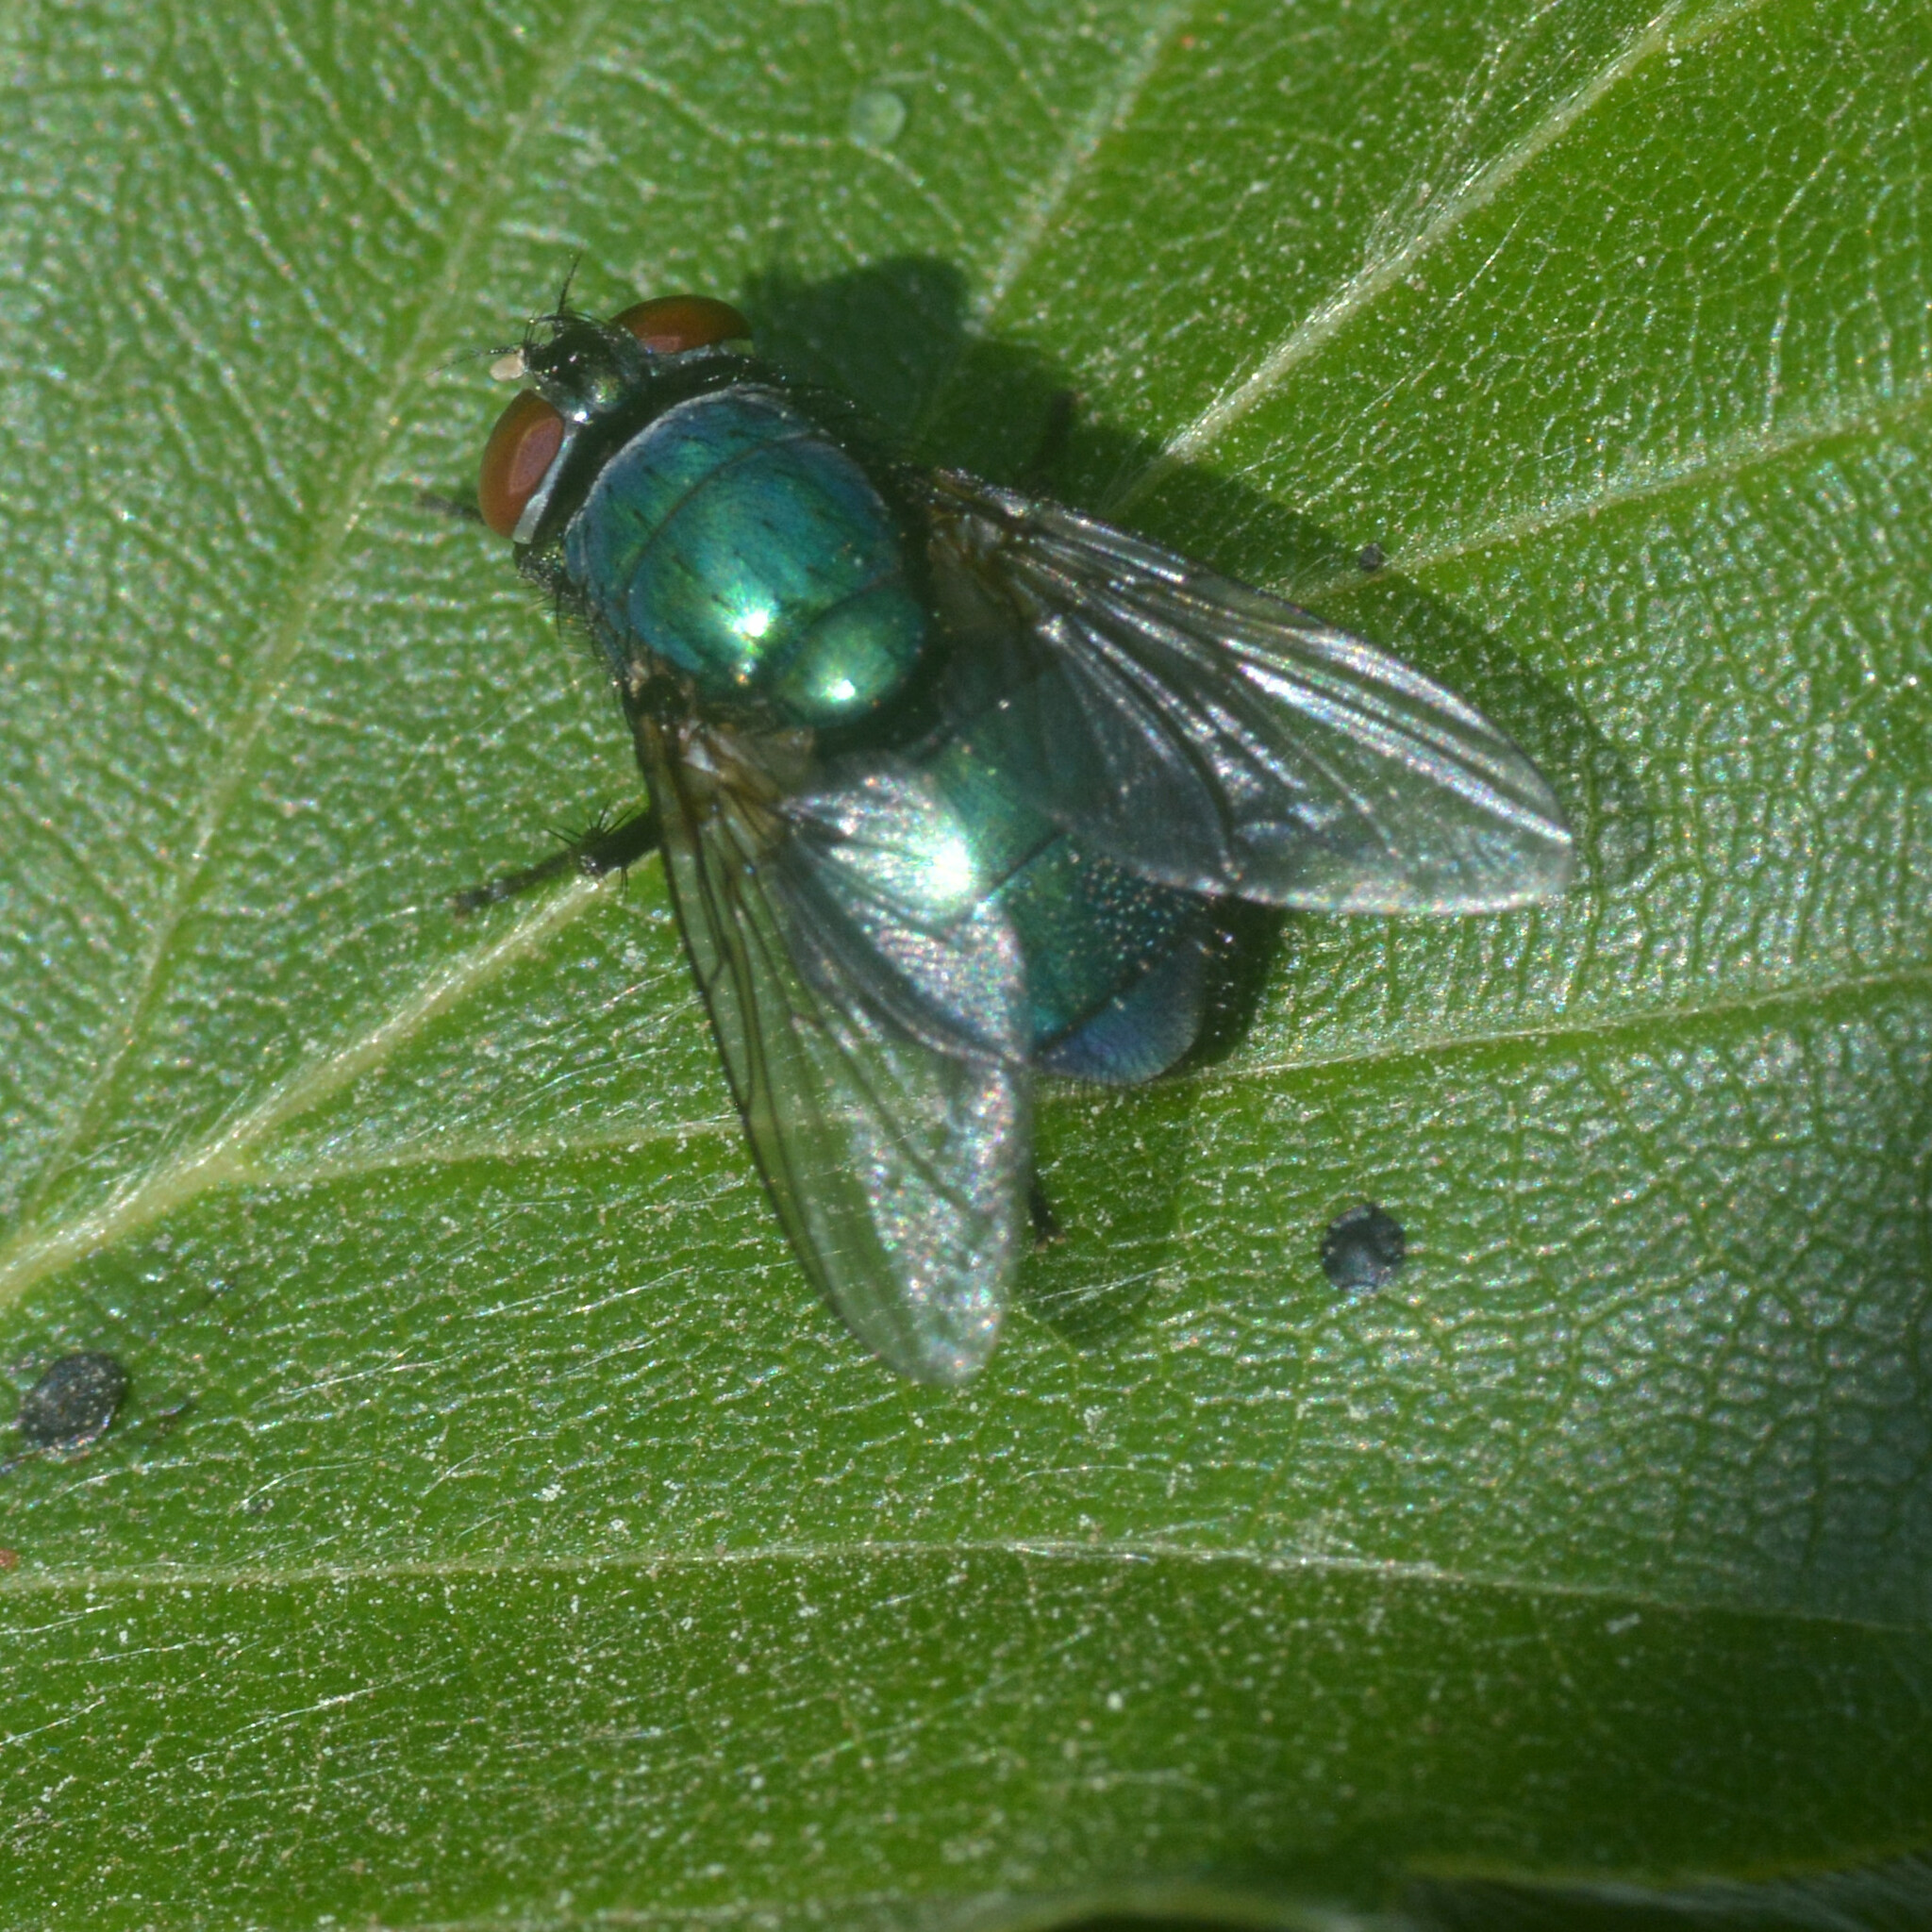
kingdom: Animalia
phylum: Arthropoda
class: Insecta
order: Diptera
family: Calliphoridae
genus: Lucilia
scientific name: Lucilia
